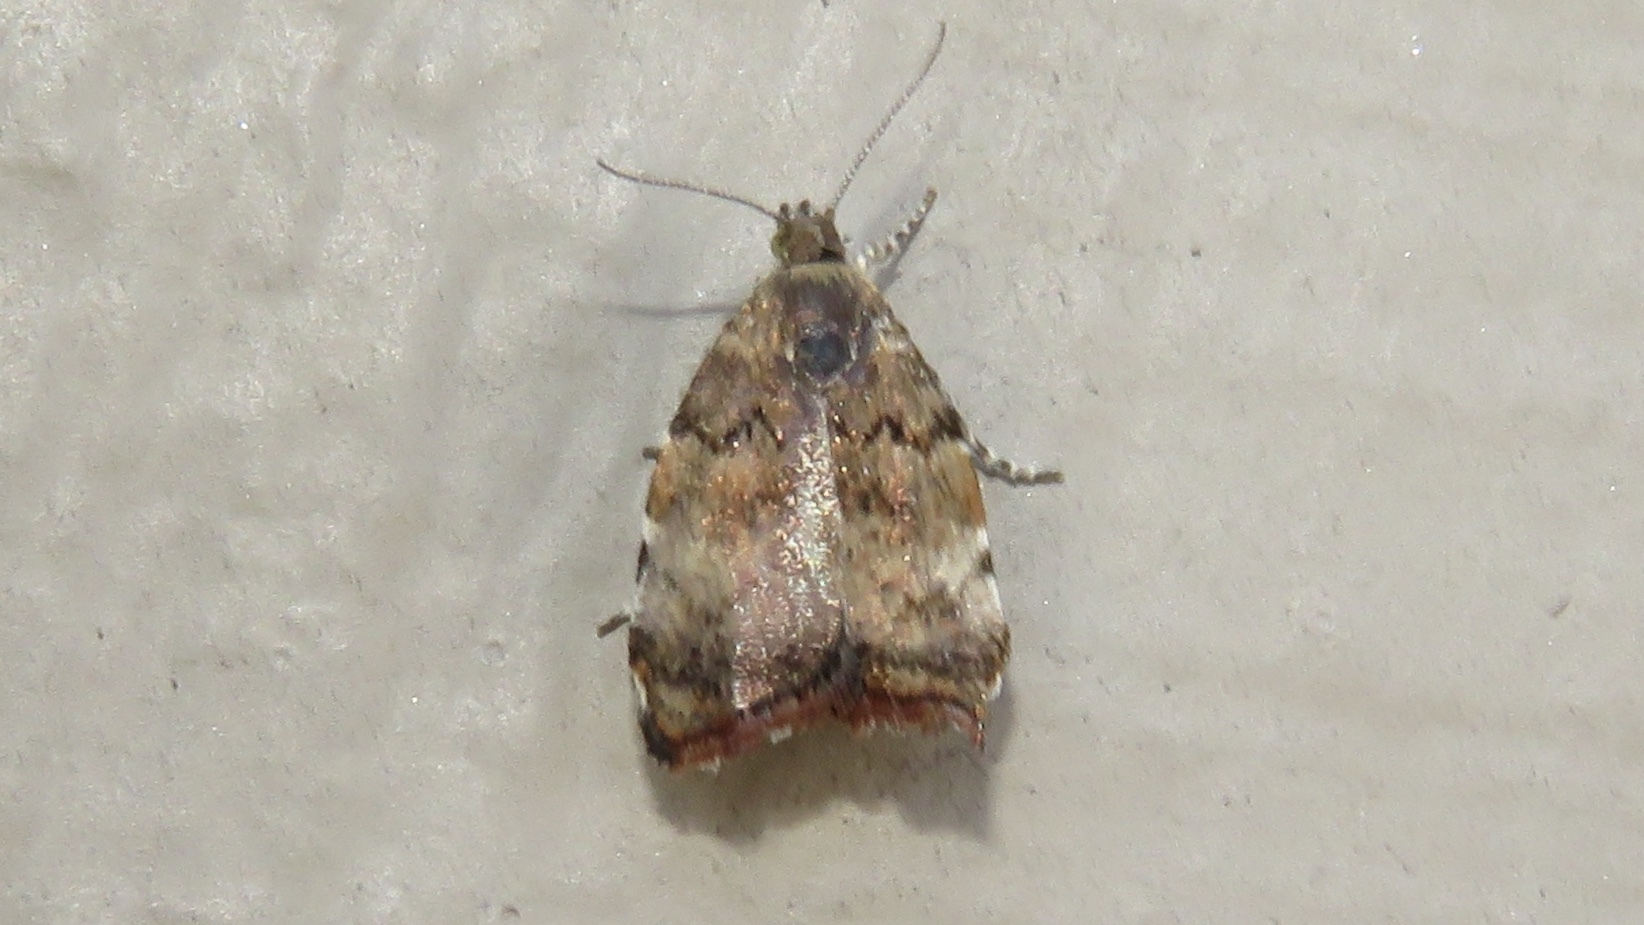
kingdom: Animalia
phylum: Arthropoda
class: Insecta
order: Lepidoptera
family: Choreutidae
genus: Choreutis
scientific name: Choreutis pariana
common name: Apple leaf skeletoniser
